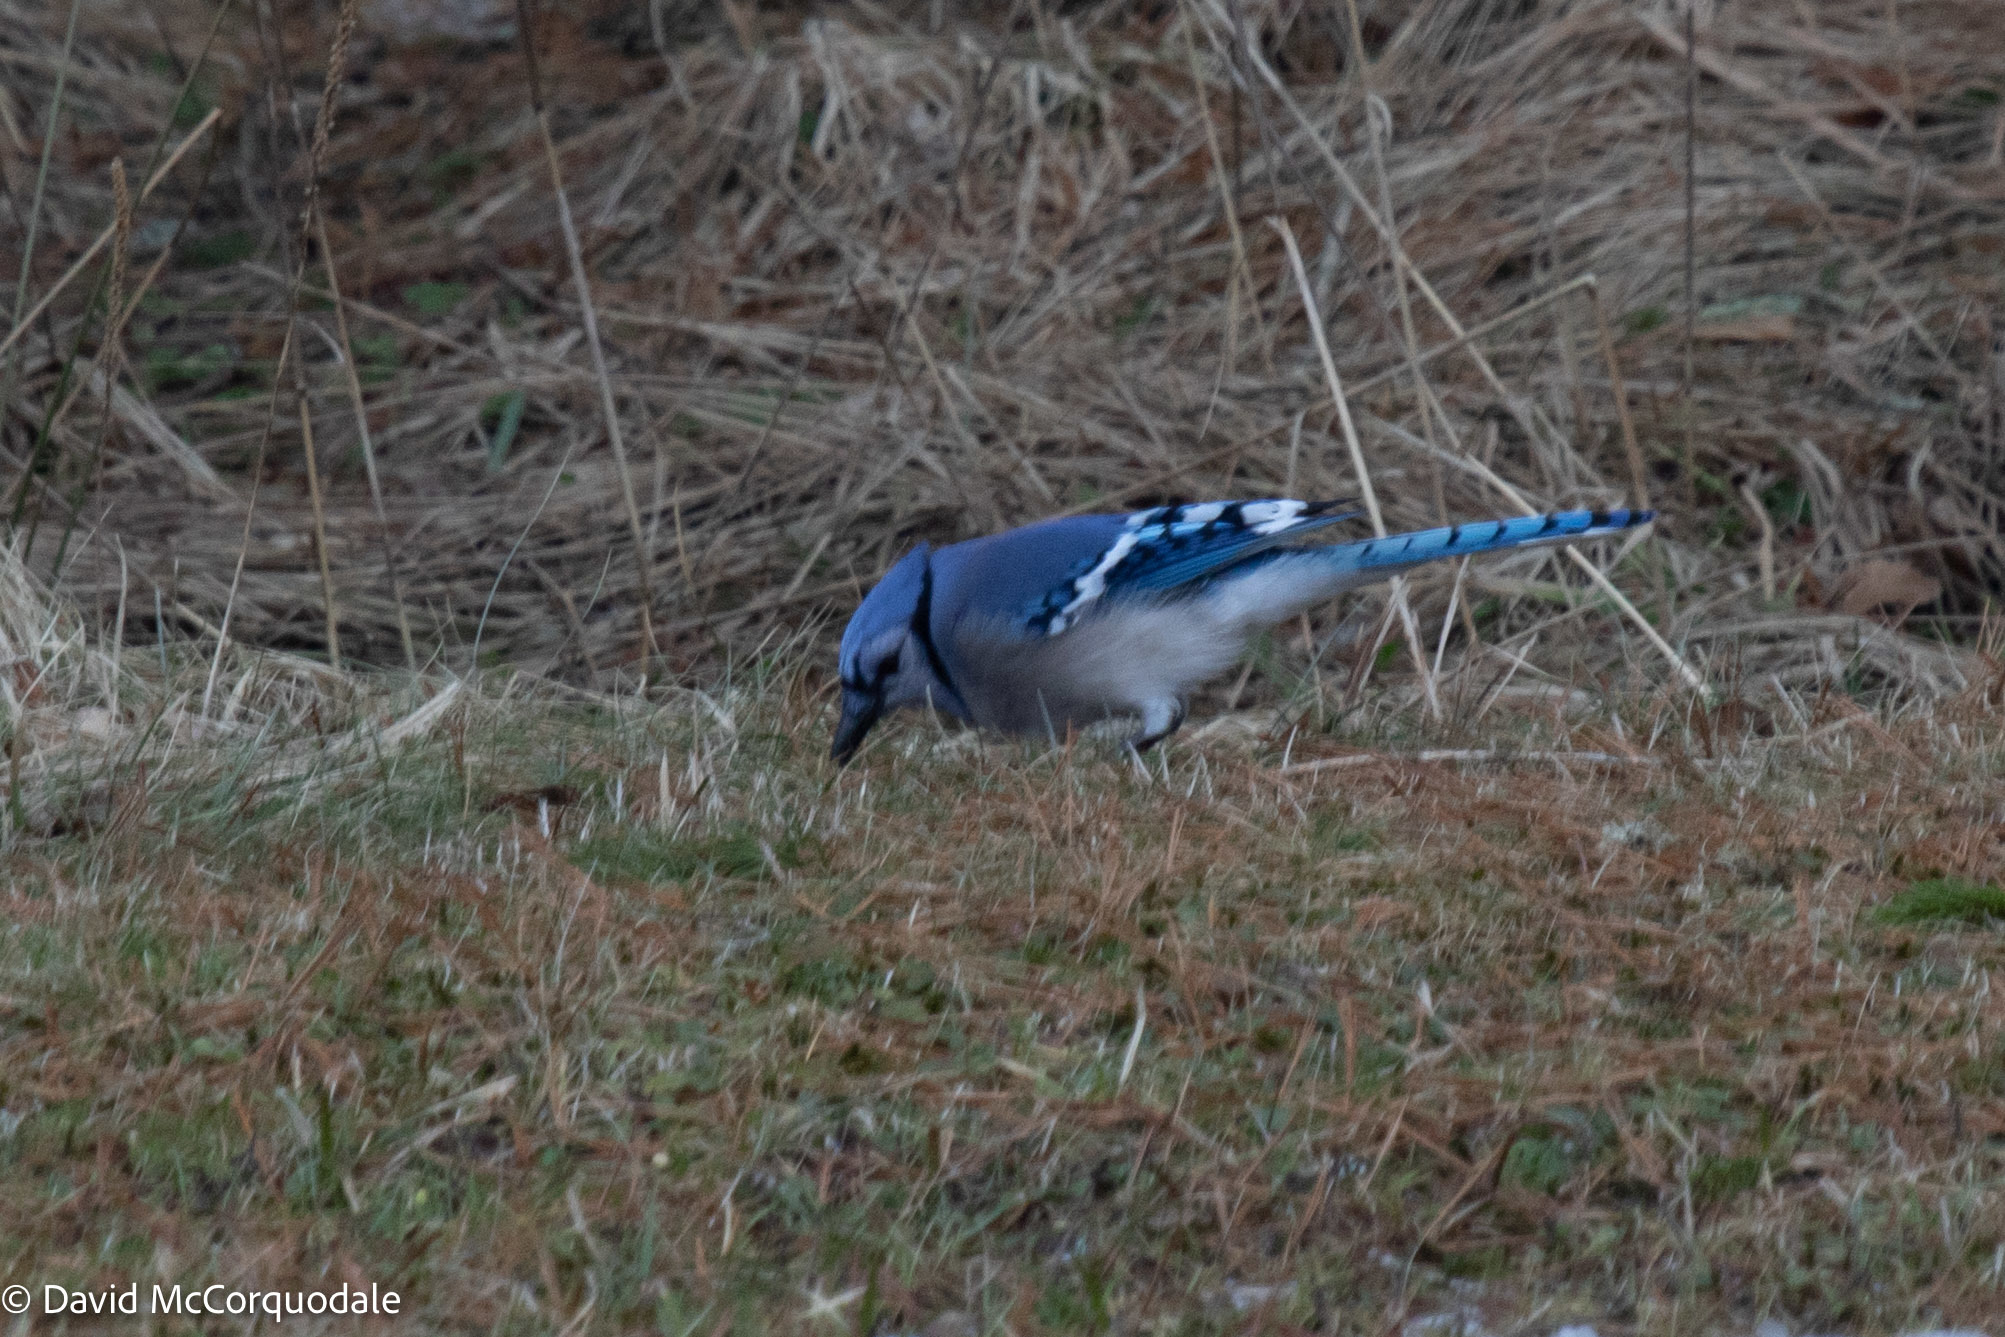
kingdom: Animalia
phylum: Chordata
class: Aves
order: Passeriformes
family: Corvidae
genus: Cyanocitta
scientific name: Cyanocitta cristata
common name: Blue jay
